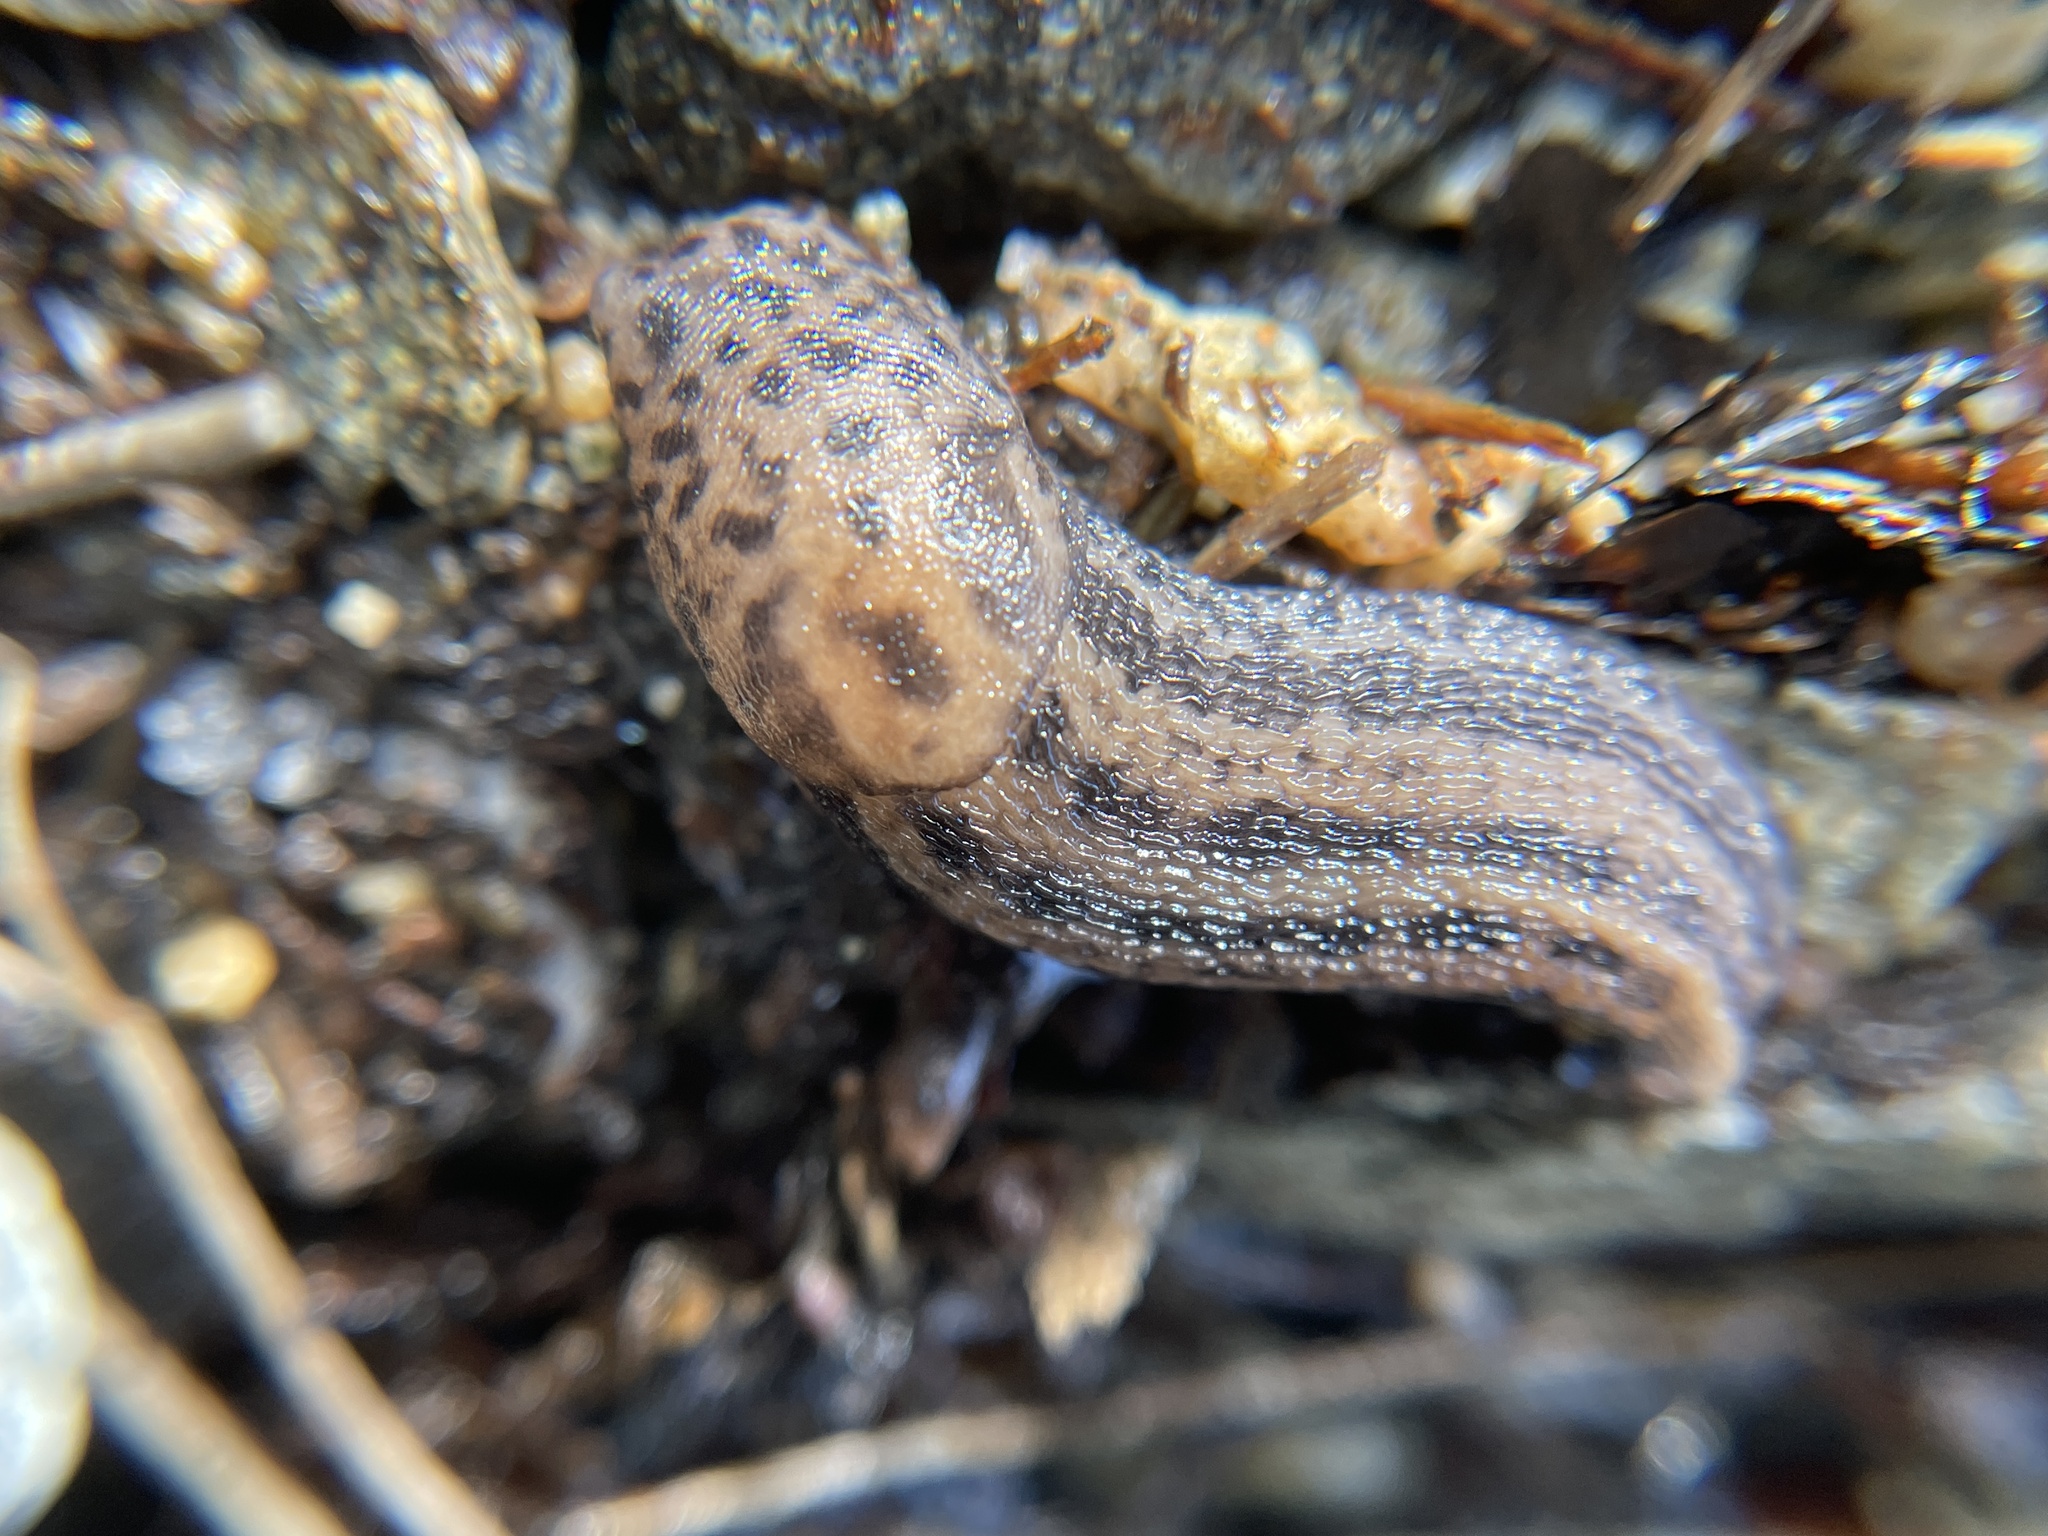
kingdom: Animalia
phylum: Mollusca
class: Gastropoda
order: Stylommatophora
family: Limacidae
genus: Limax
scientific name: Limax maximus
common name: Great grey slug
